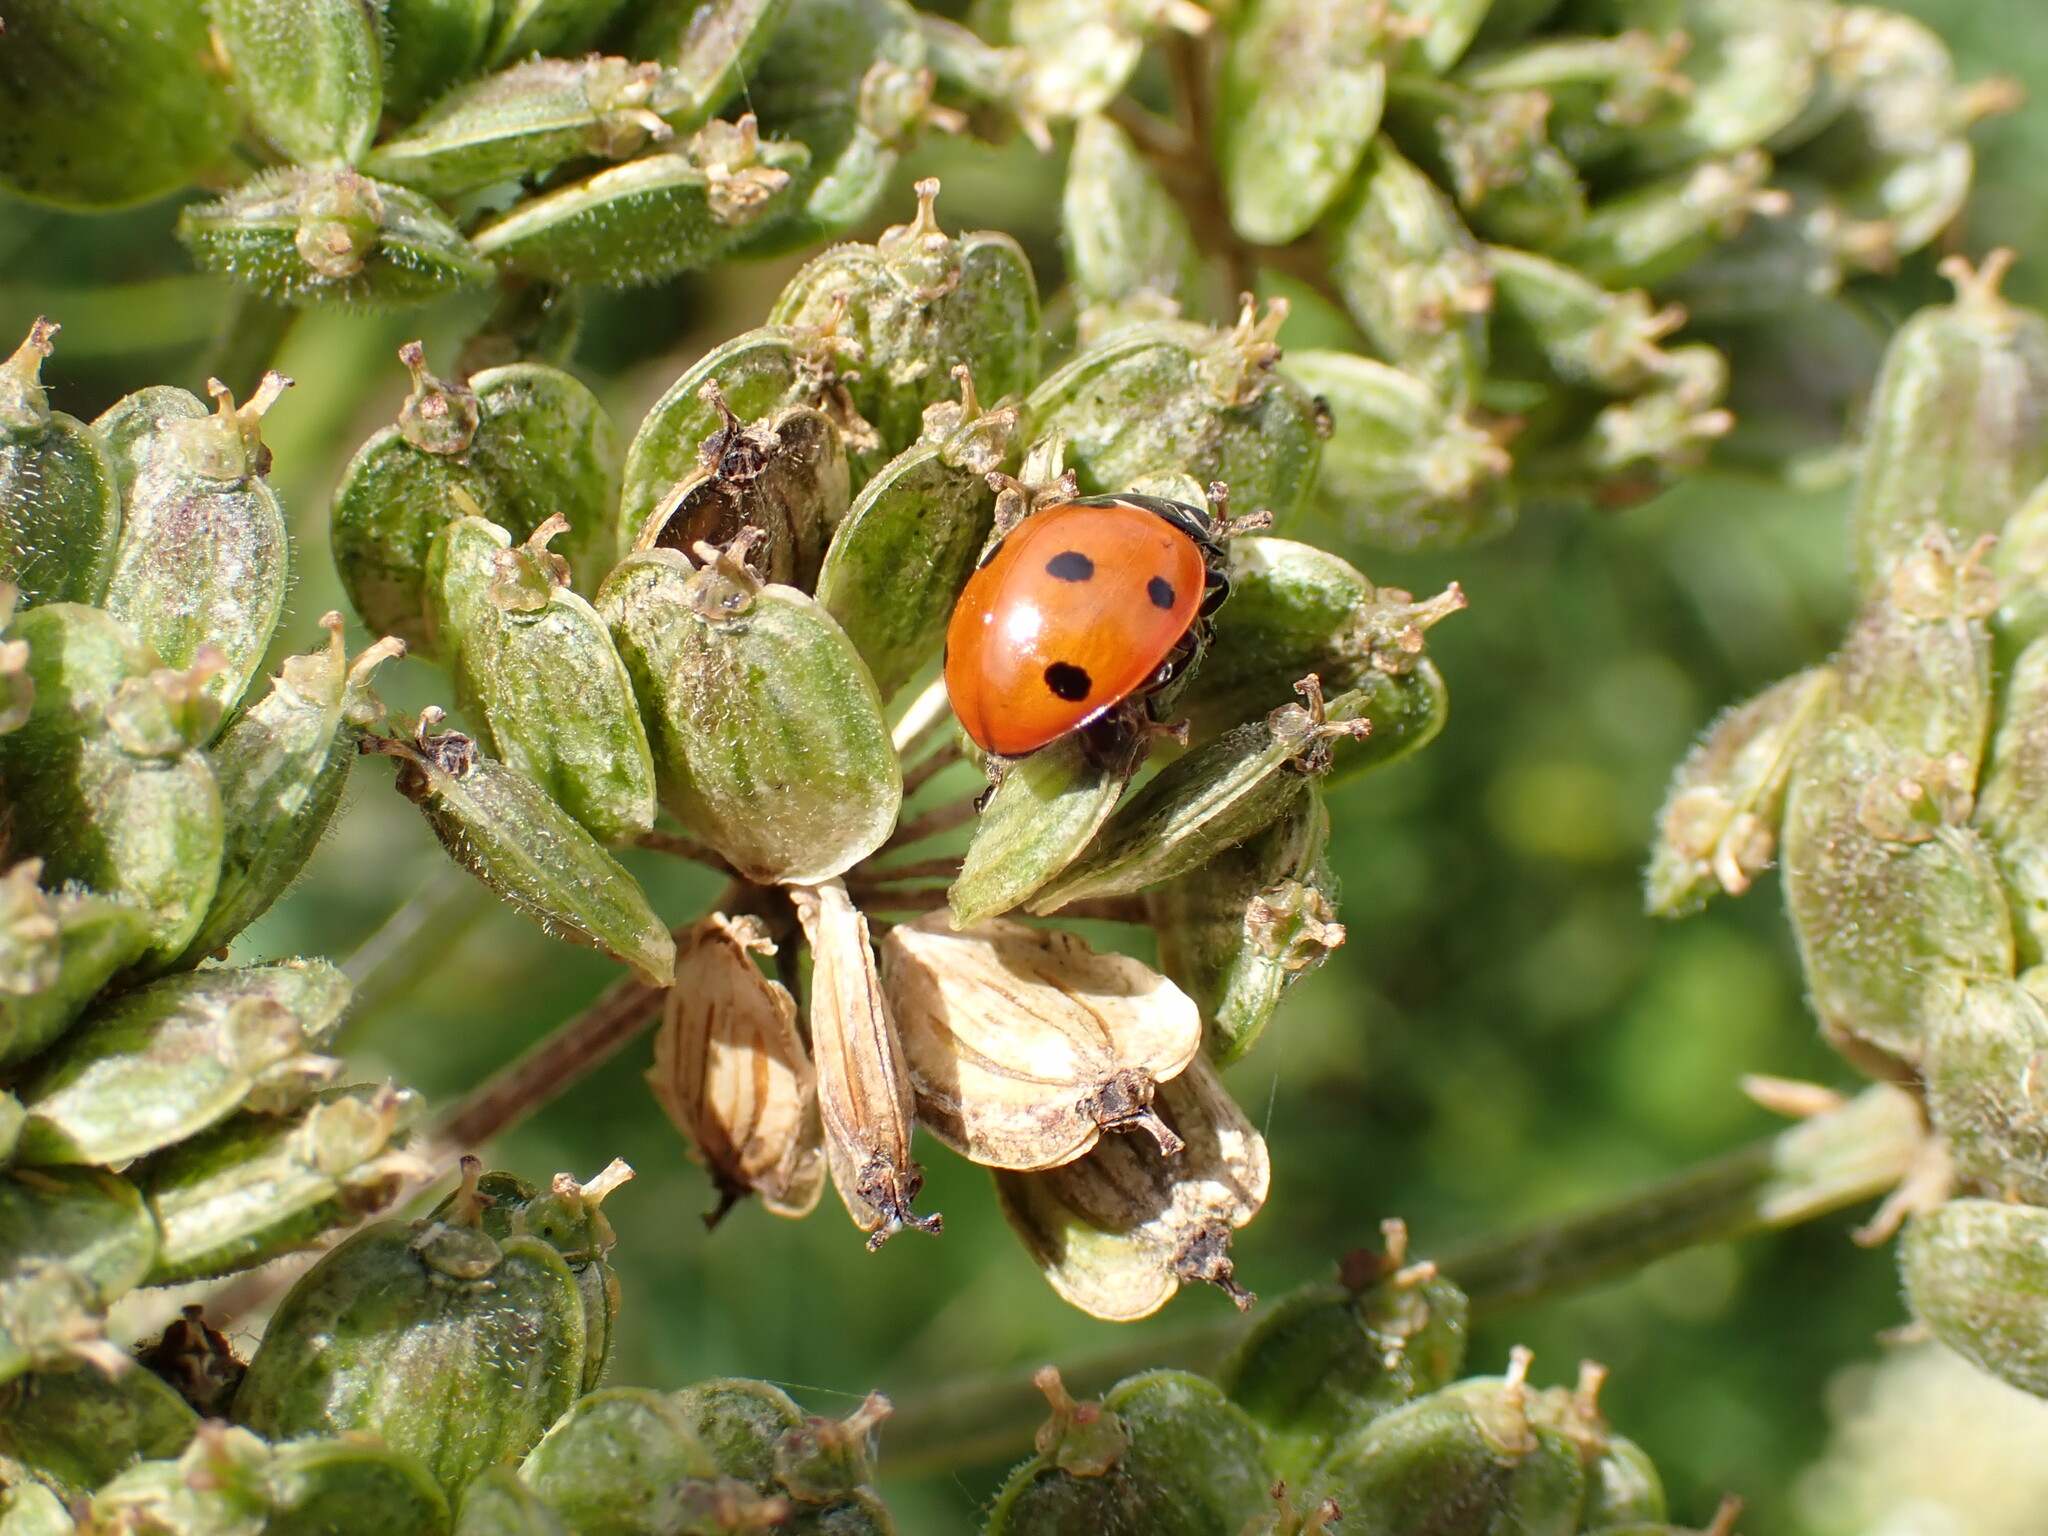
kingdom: Animalia
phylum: Arthropoda
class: Insecta
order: Coleoptera
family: Coccinellidae
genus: Coccinella
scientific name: Coccinella septempunctata
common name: Sevenspotted lady beetle
